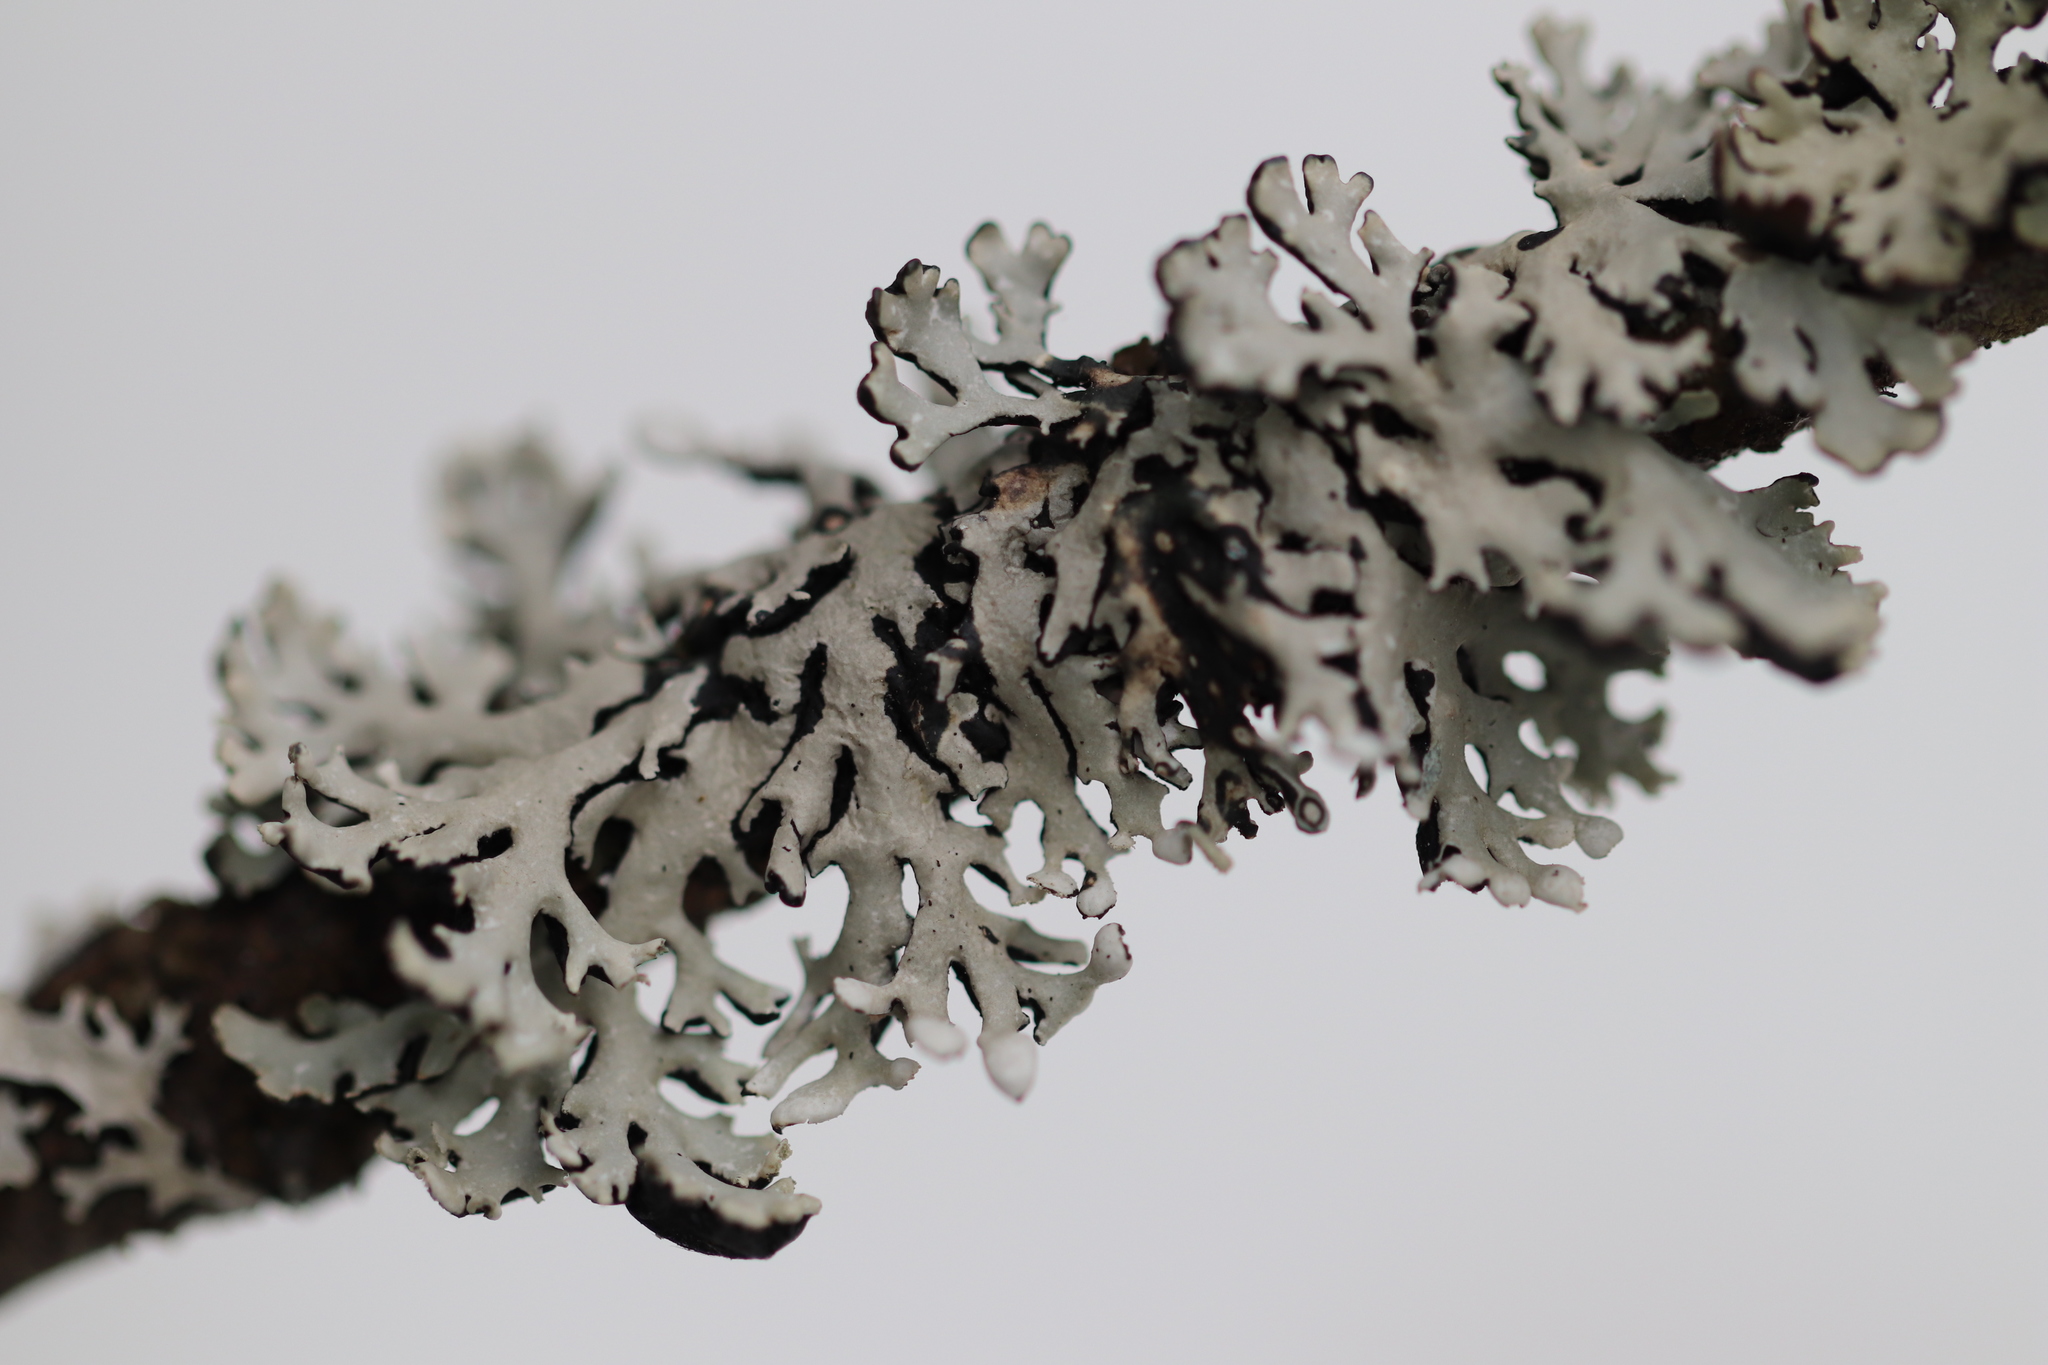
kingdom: Fungi
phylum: Ascomycota
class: Lecanoromycetes
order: Lecanorales
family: Parmeliaceae
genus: Hypogymnia
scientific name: Hypogymnia physodes
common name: Dark crottle
